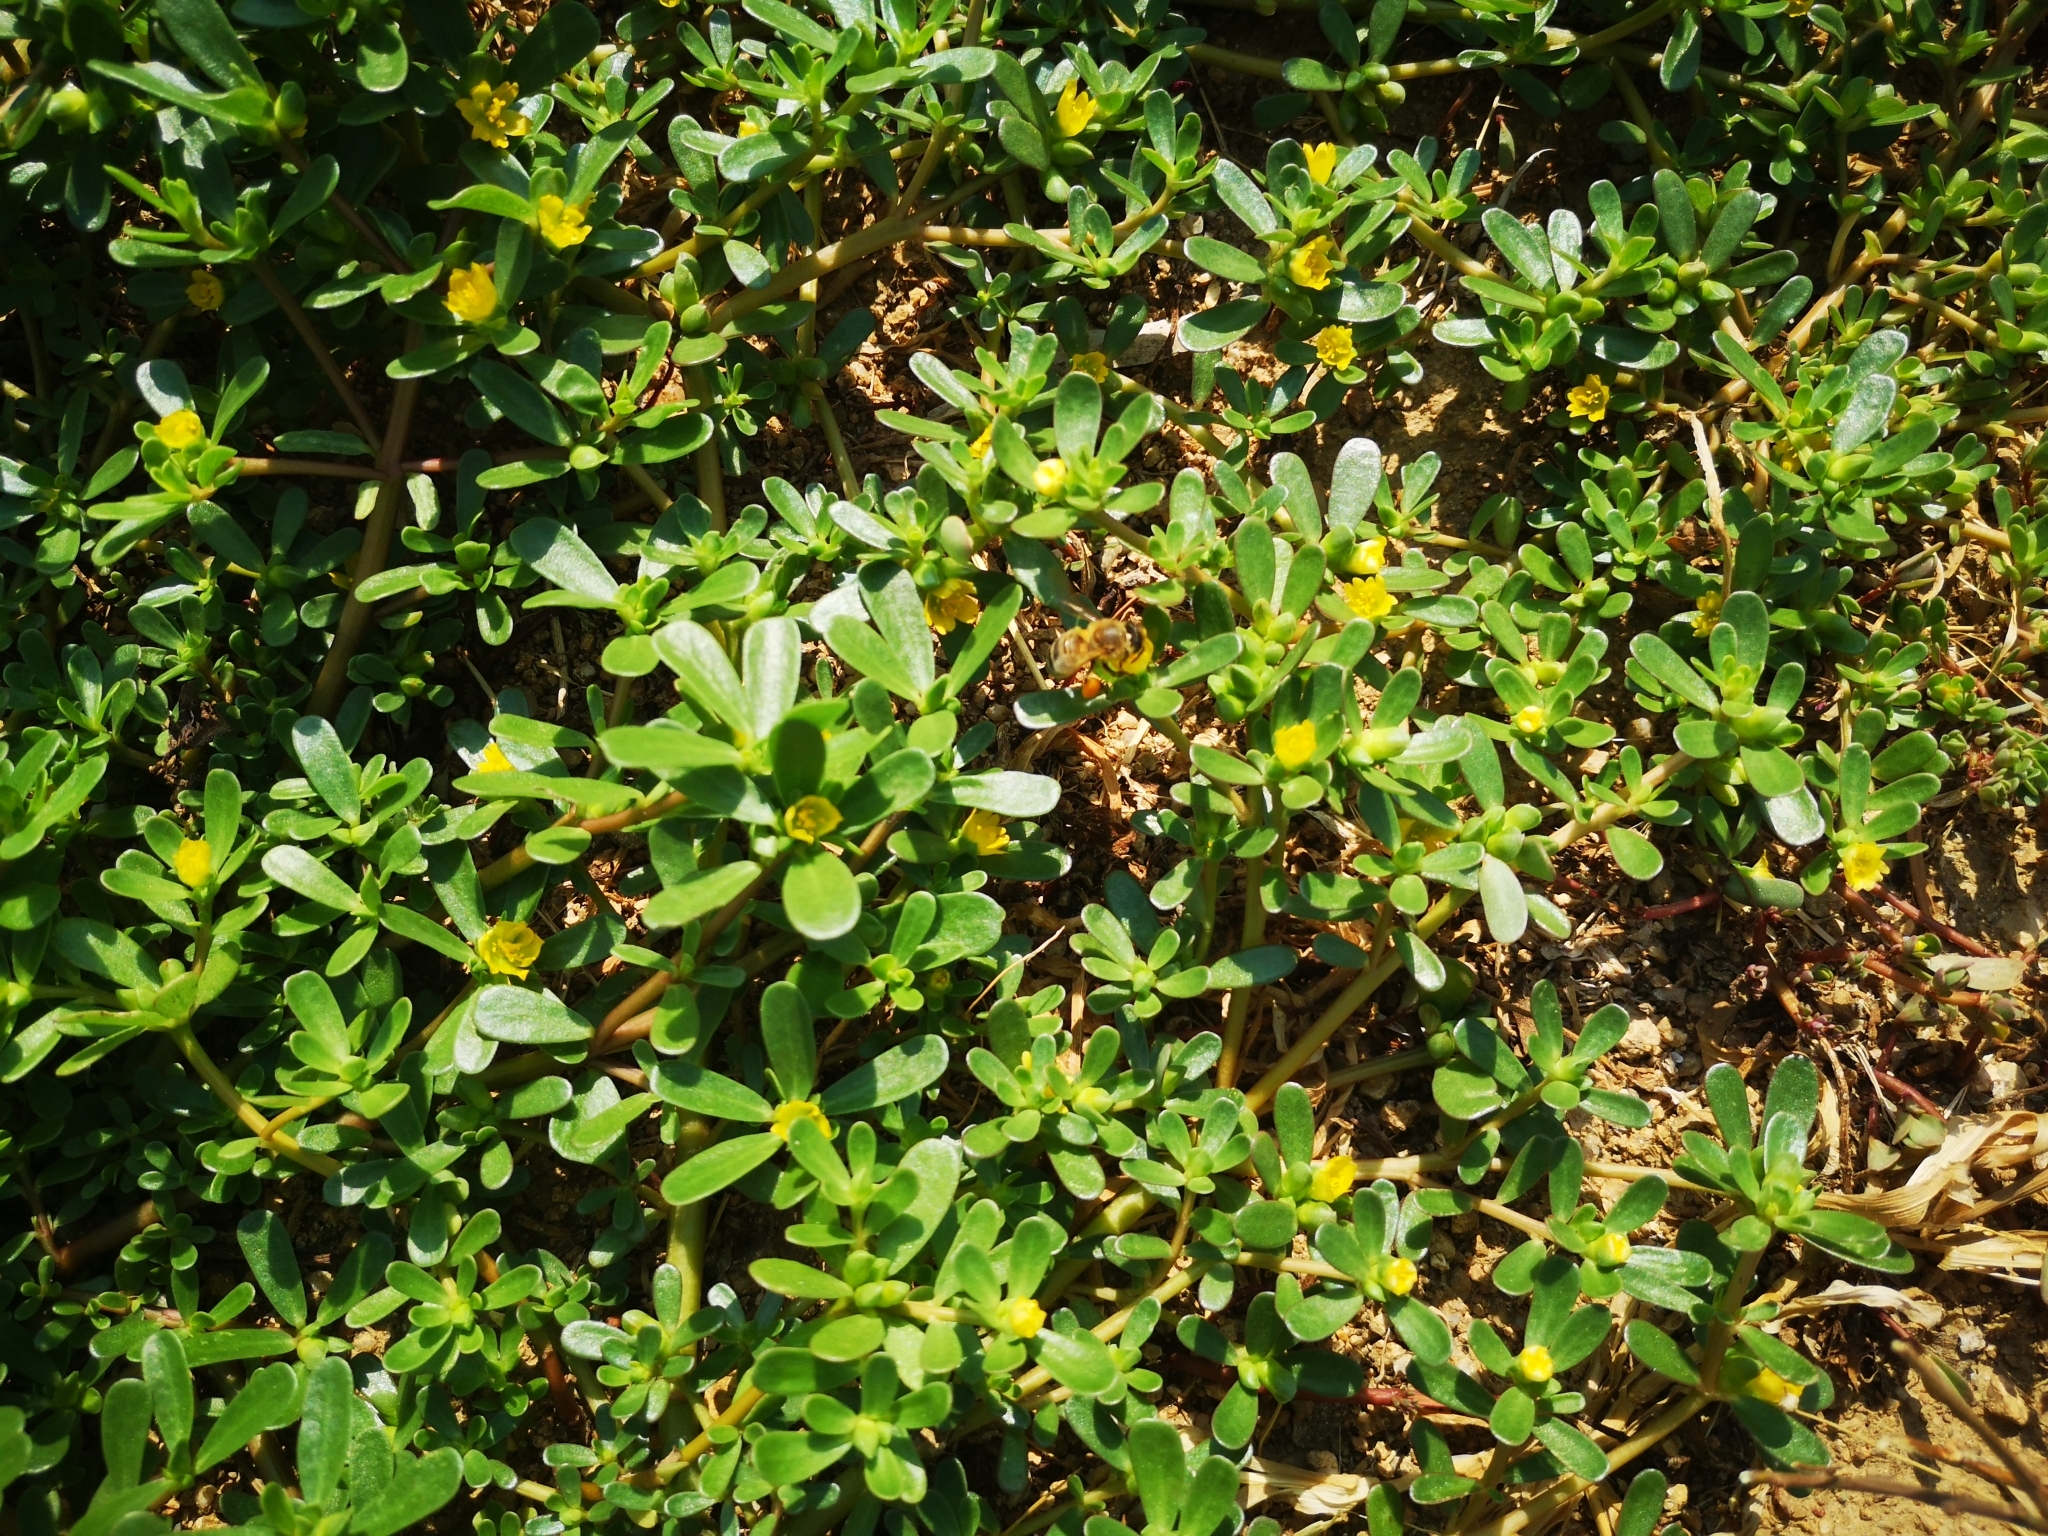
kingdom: Plantae
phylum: Tracheophyta
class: Magnoliopsida
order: Caryophyllales
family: Portulacaceae
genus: Portulaca
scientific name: Portulaca oleracea
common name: Common purslane
